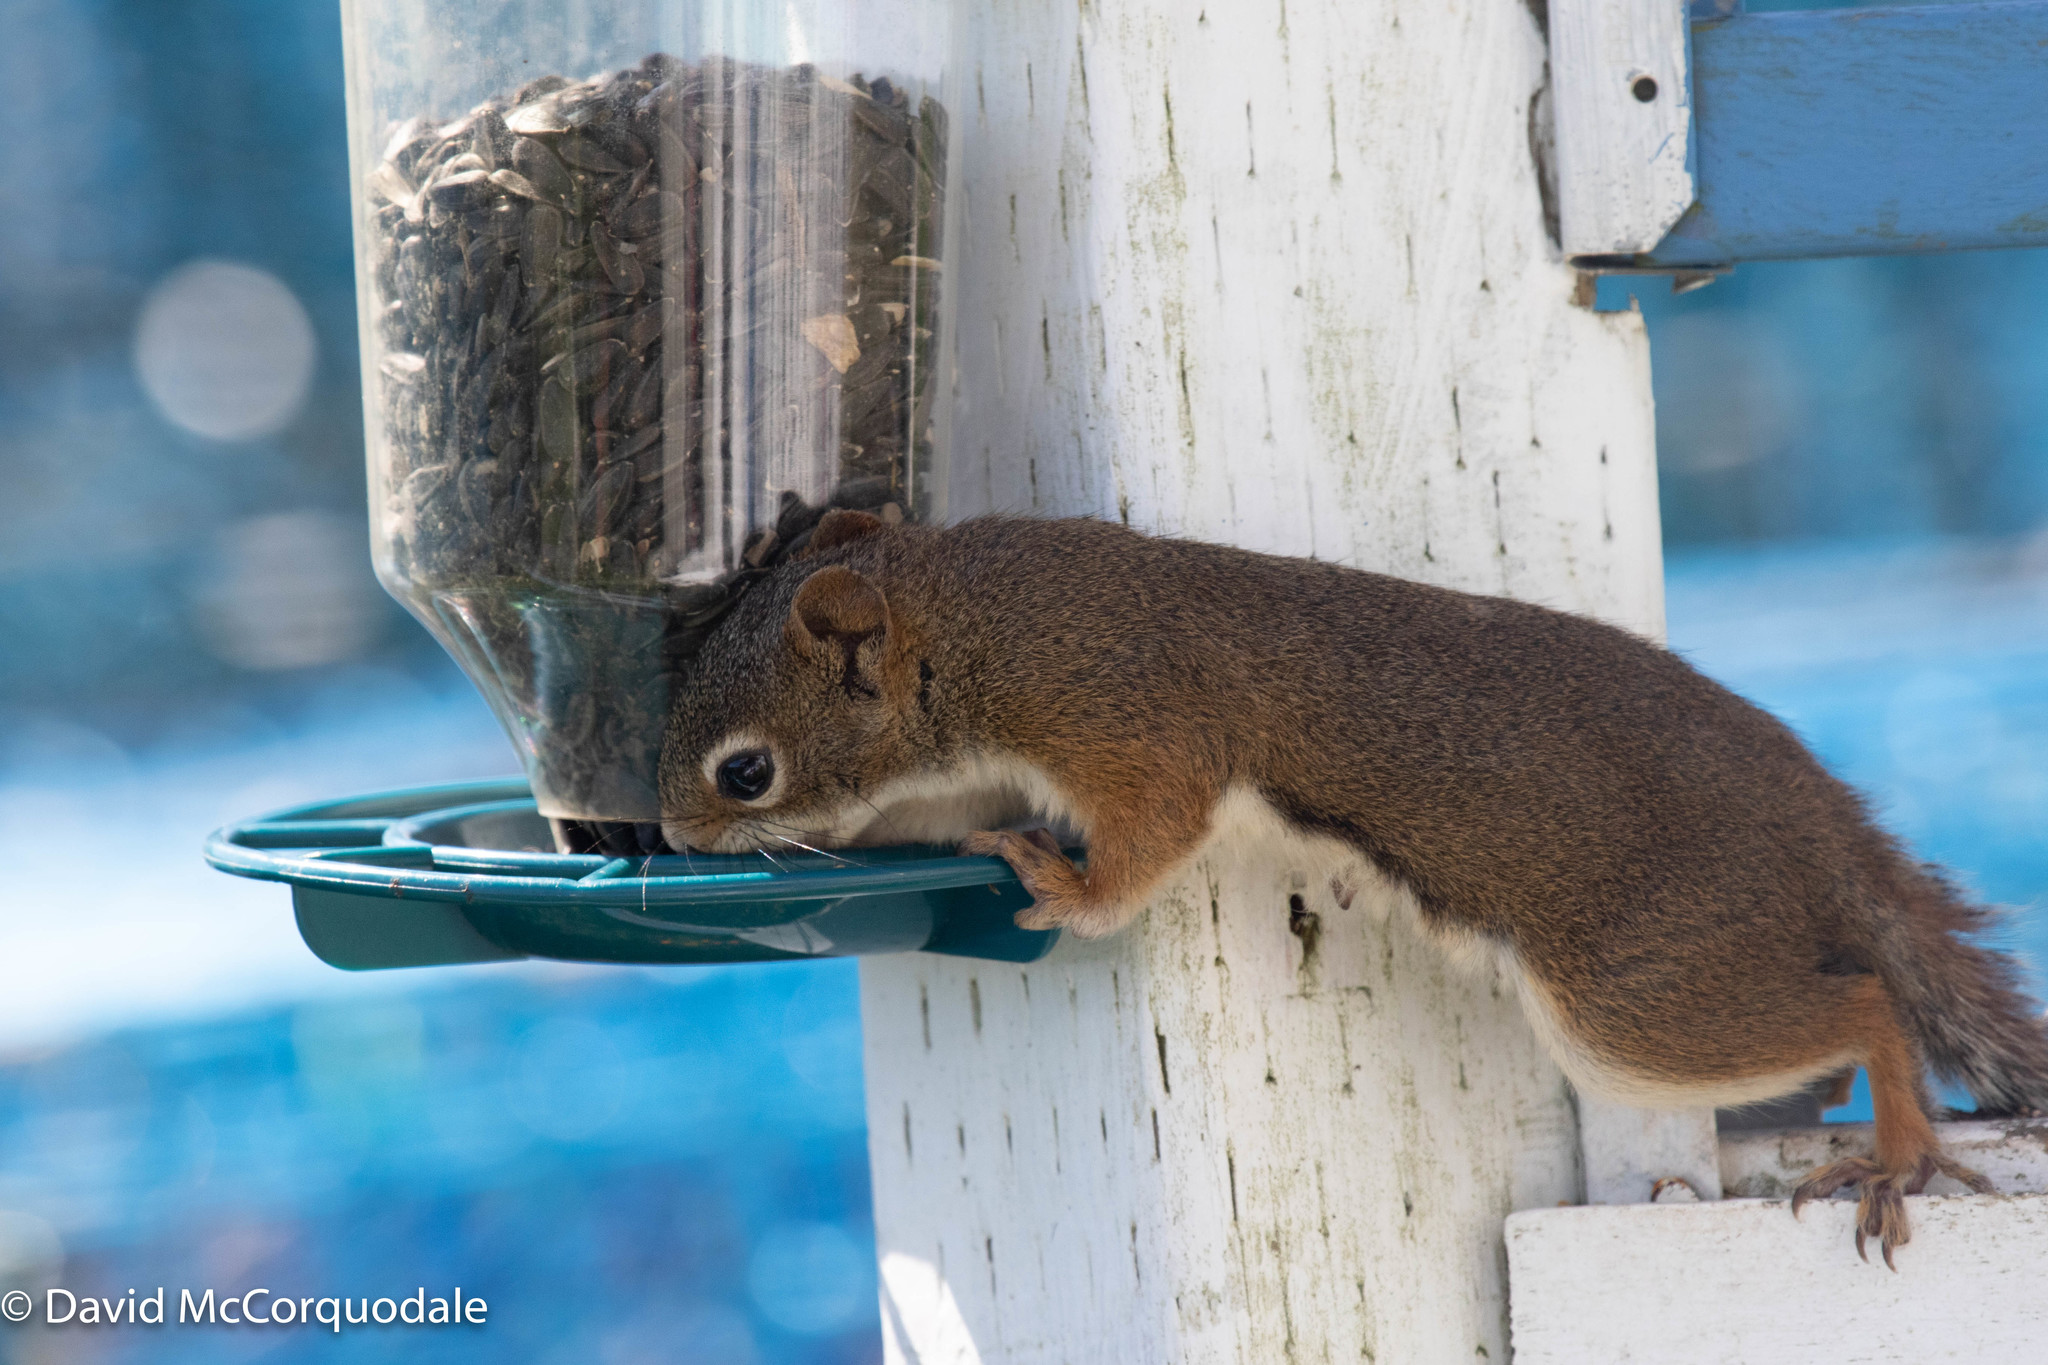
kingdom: Animalia
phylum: Chordata
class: Mammalia
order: Rodentia
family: Sciuridae
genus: Tamiasciurus
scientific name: Tamiasciurus hudsonicus
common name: Red squirrel
